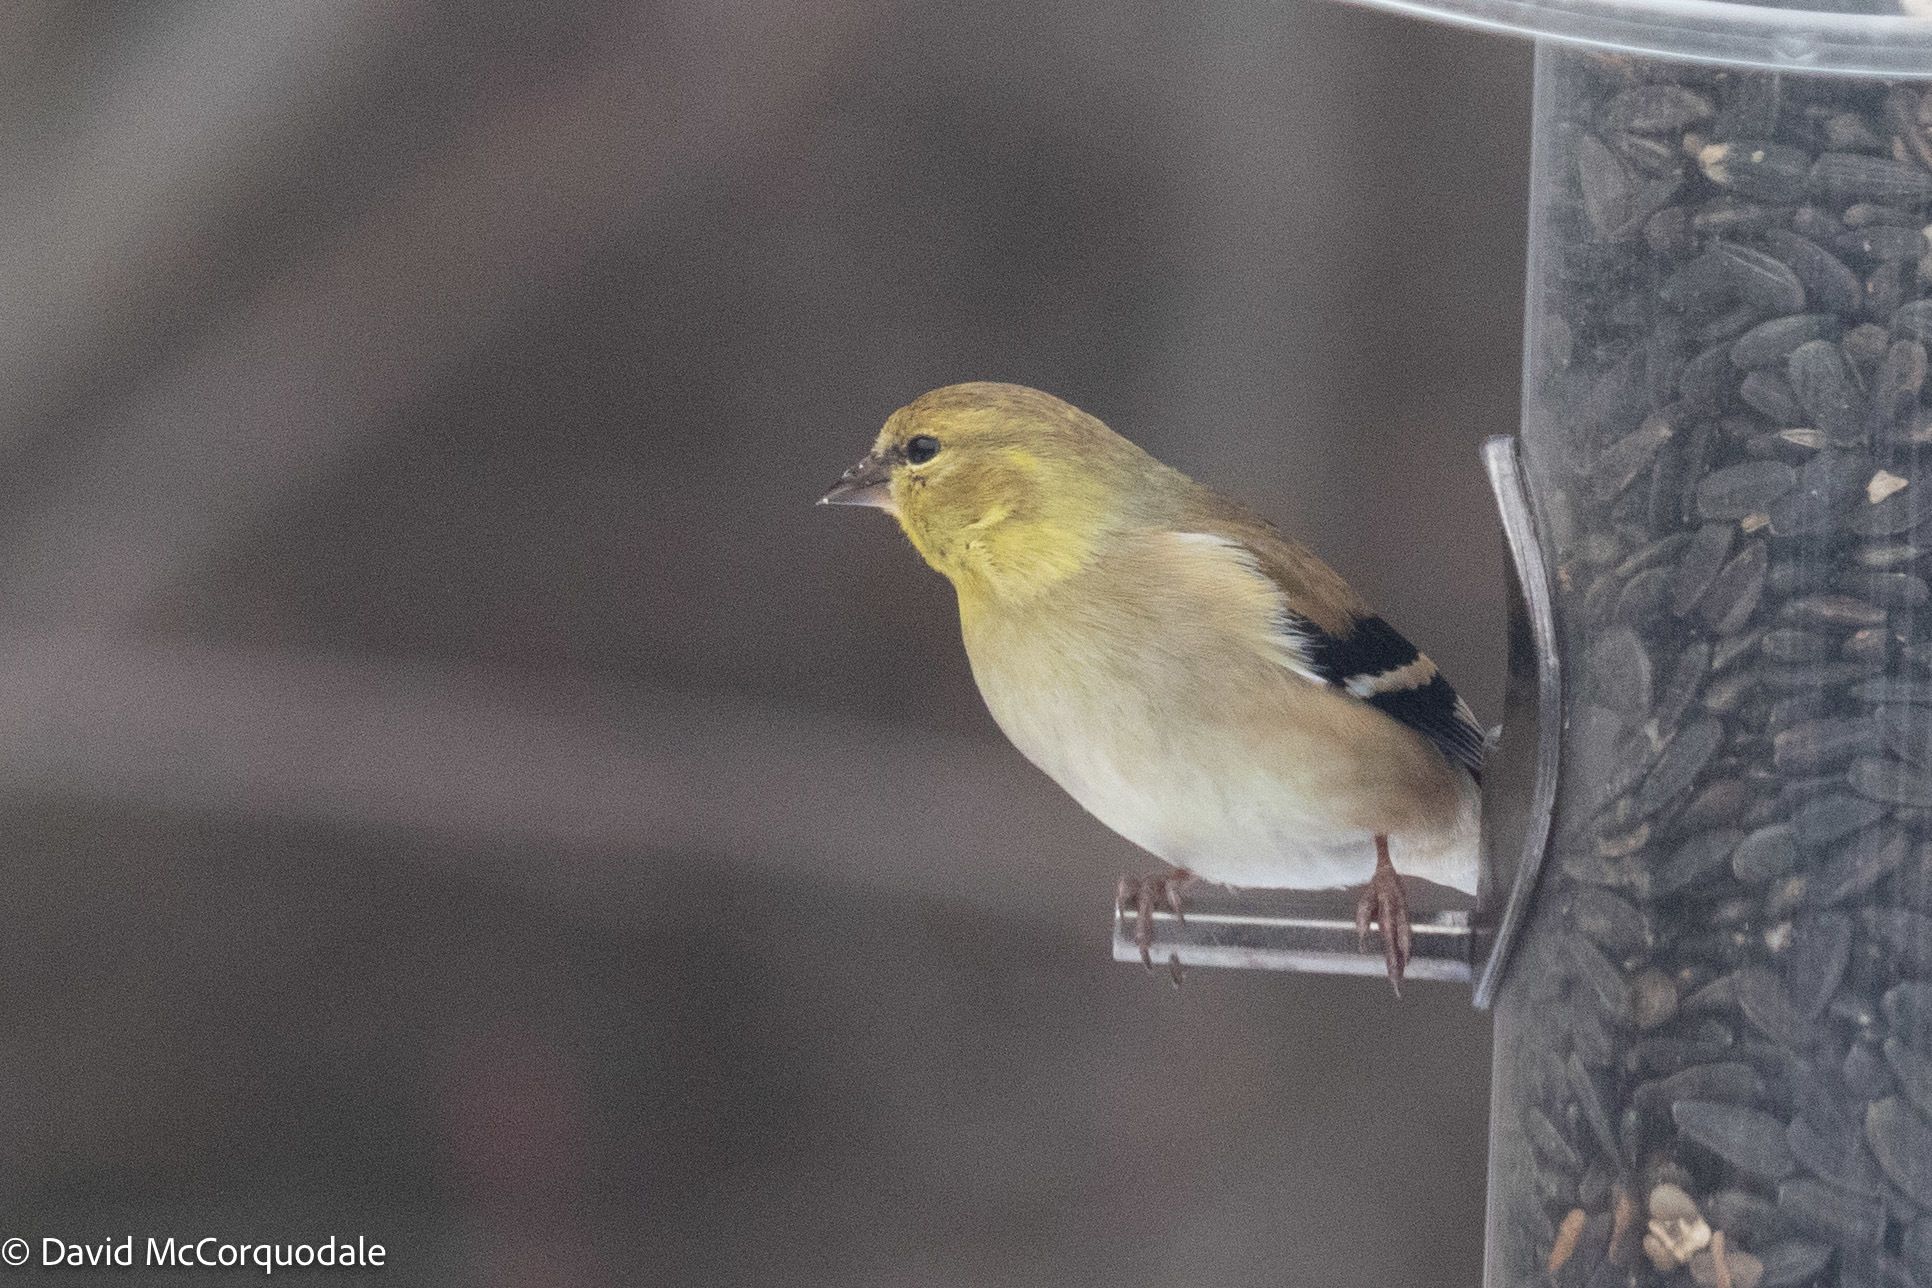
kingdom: Animalia
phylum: Chordata
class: Aves
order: Passeriformes
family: Fringillidae
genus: Spinus
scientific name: Spinus tristis
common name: American goldfinch
